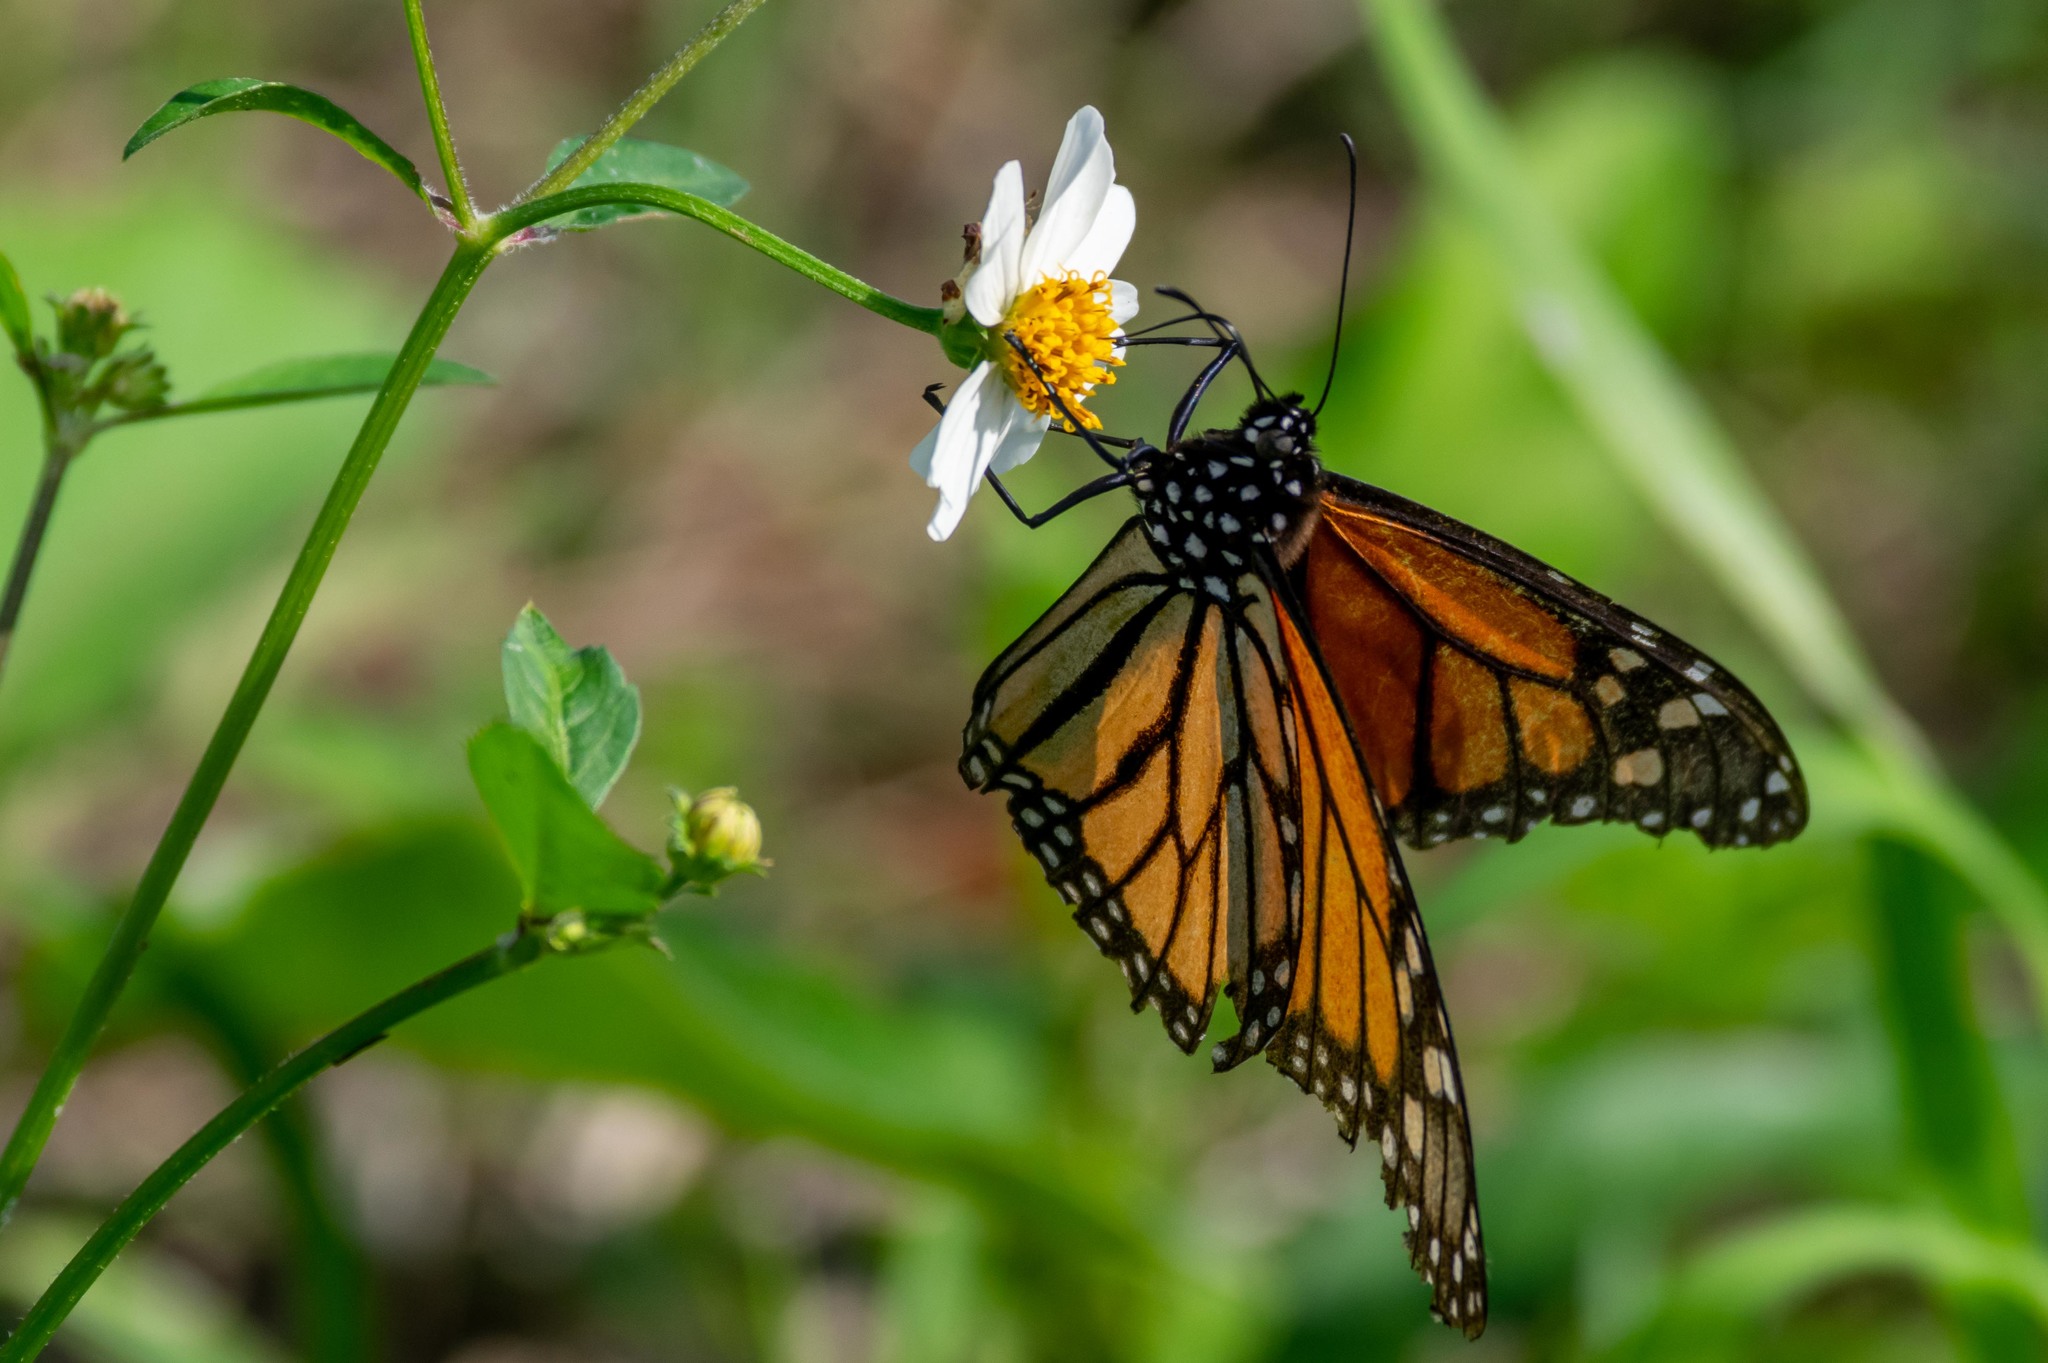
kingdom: Animalia
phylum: Arthropoda
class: Insecta
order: Lepidoptera
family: Nymphalidae
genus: Danaus
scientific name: Danaus plexippus
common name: Monarch
